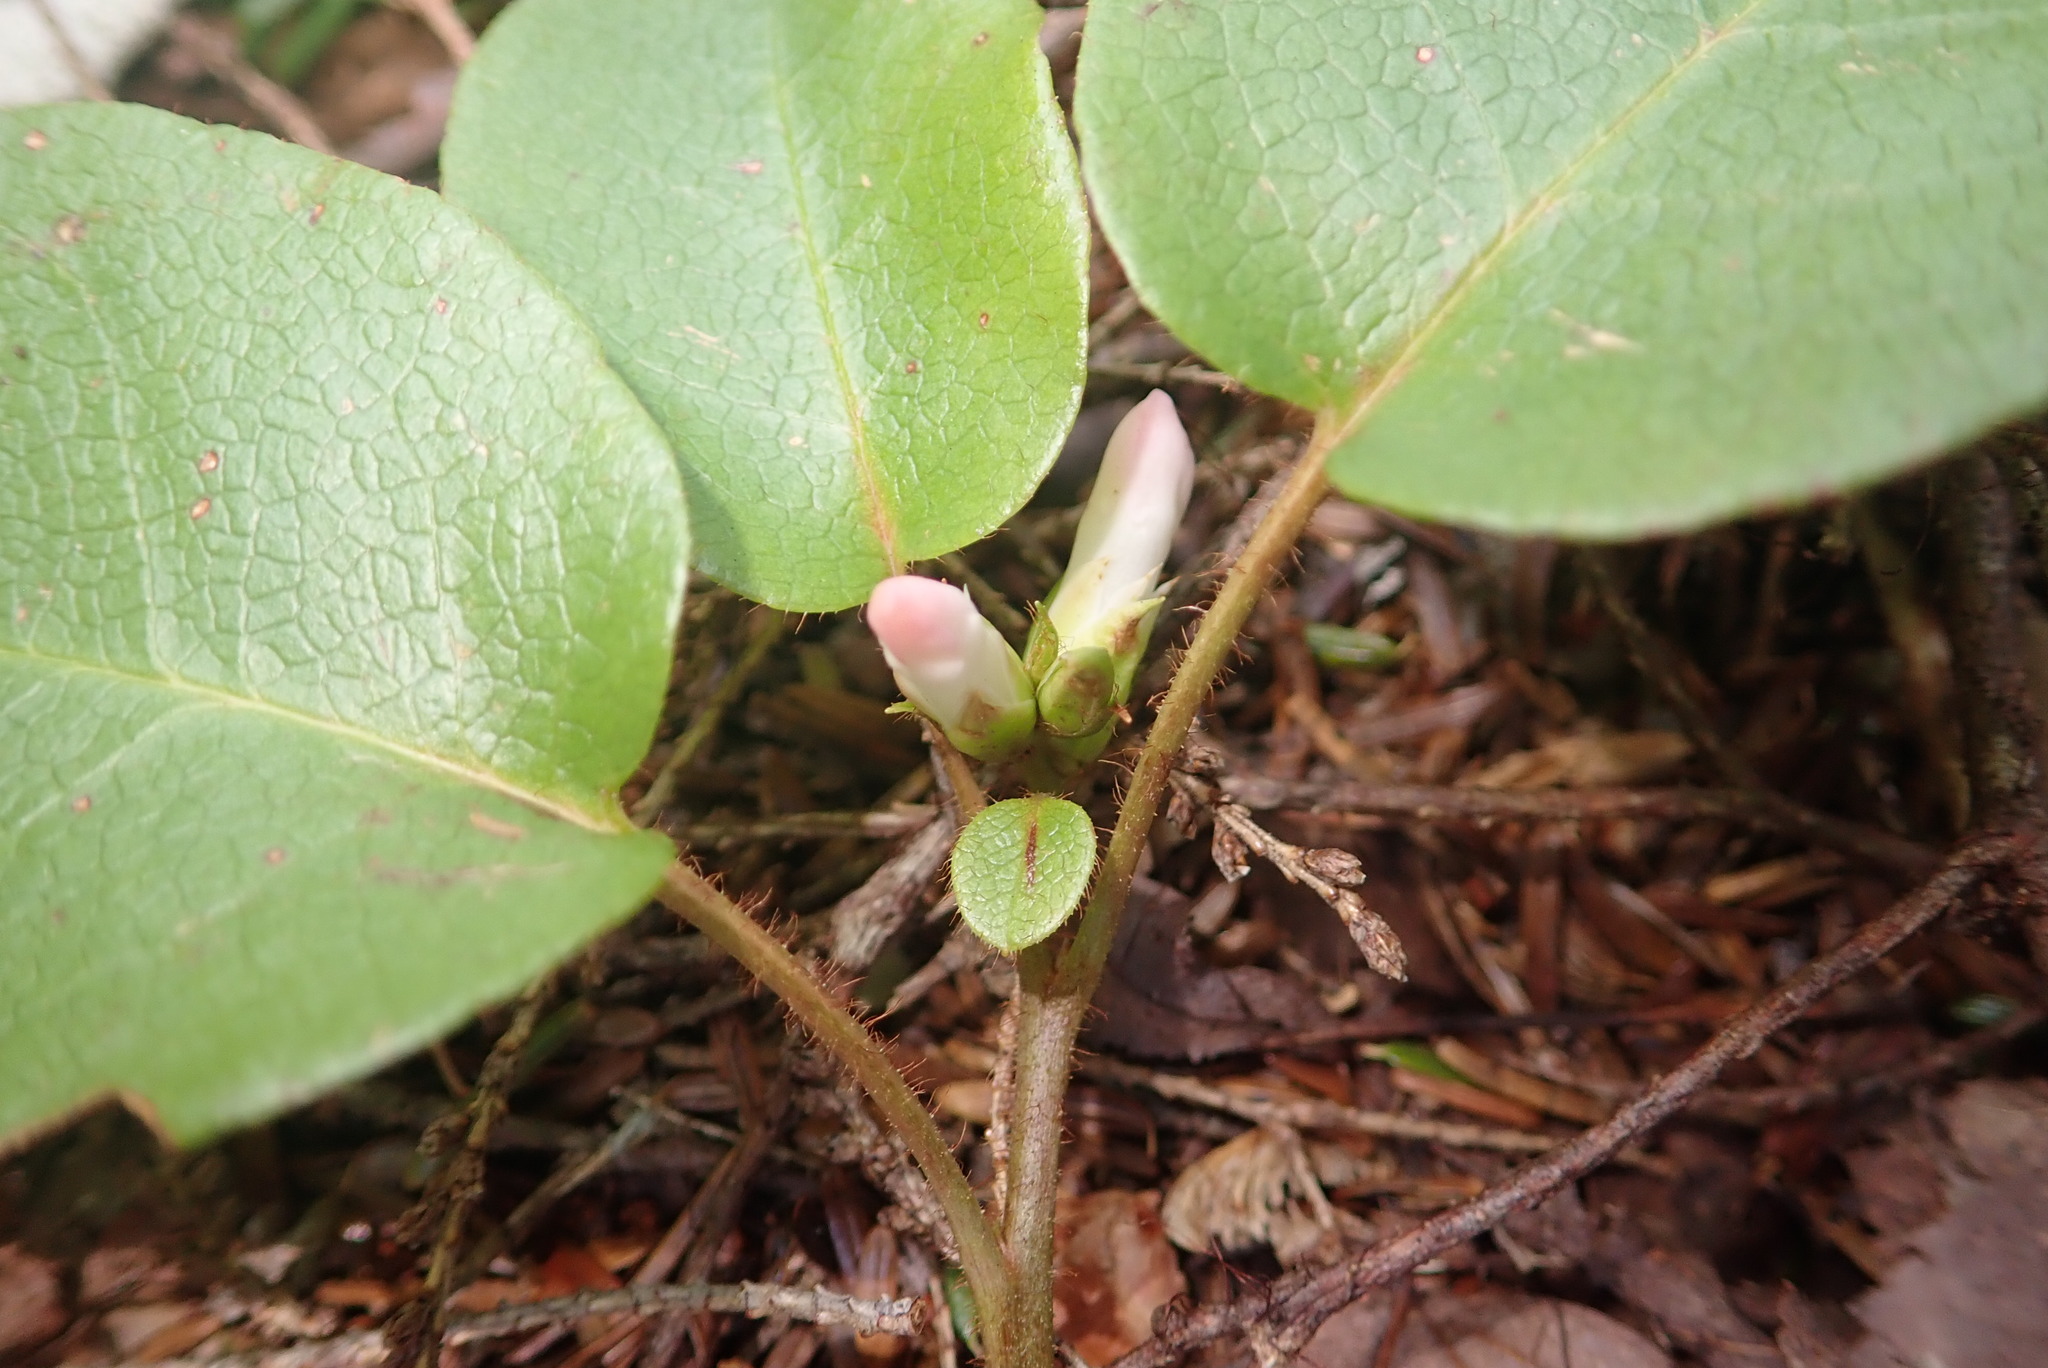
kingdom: Plantae
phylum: Tracheophyta
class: Magnoliopsida
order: Ericales
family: Ericaceae
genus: Epigaea
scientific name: Epigaea repens
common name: Gravelroot
